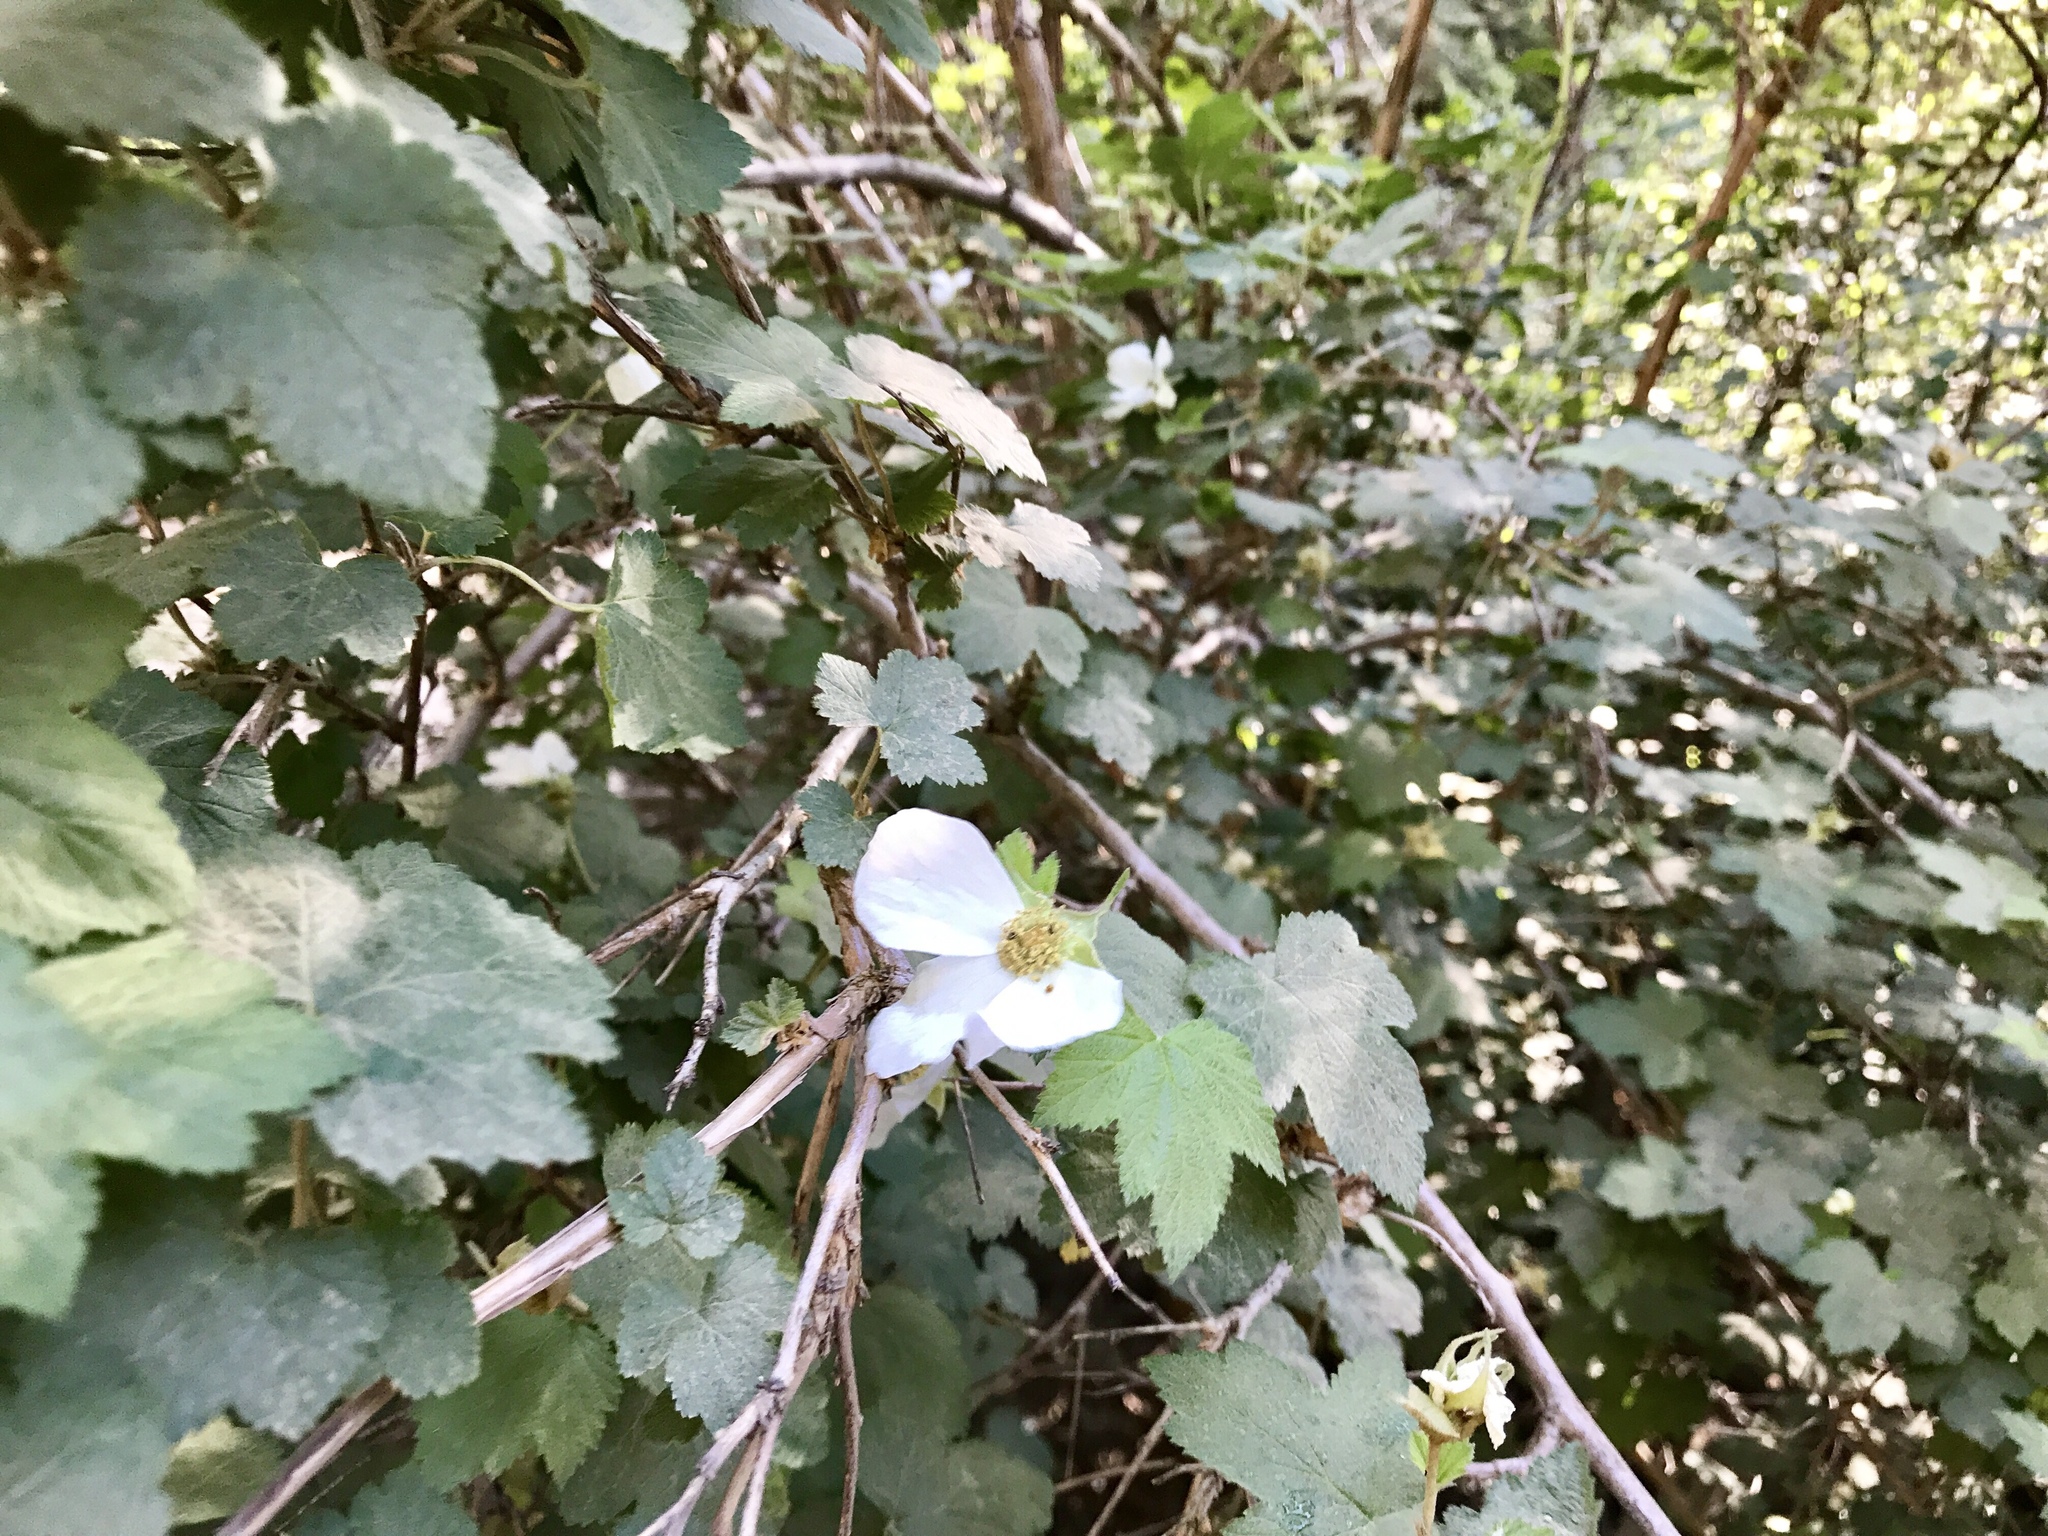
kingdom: Plantae
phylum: Tracheophyta
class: Magnoliopsida
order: Rosales
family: Rosaceae
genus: Rubus
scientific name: Rubus neomexicanus
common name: New mexico raspberry
